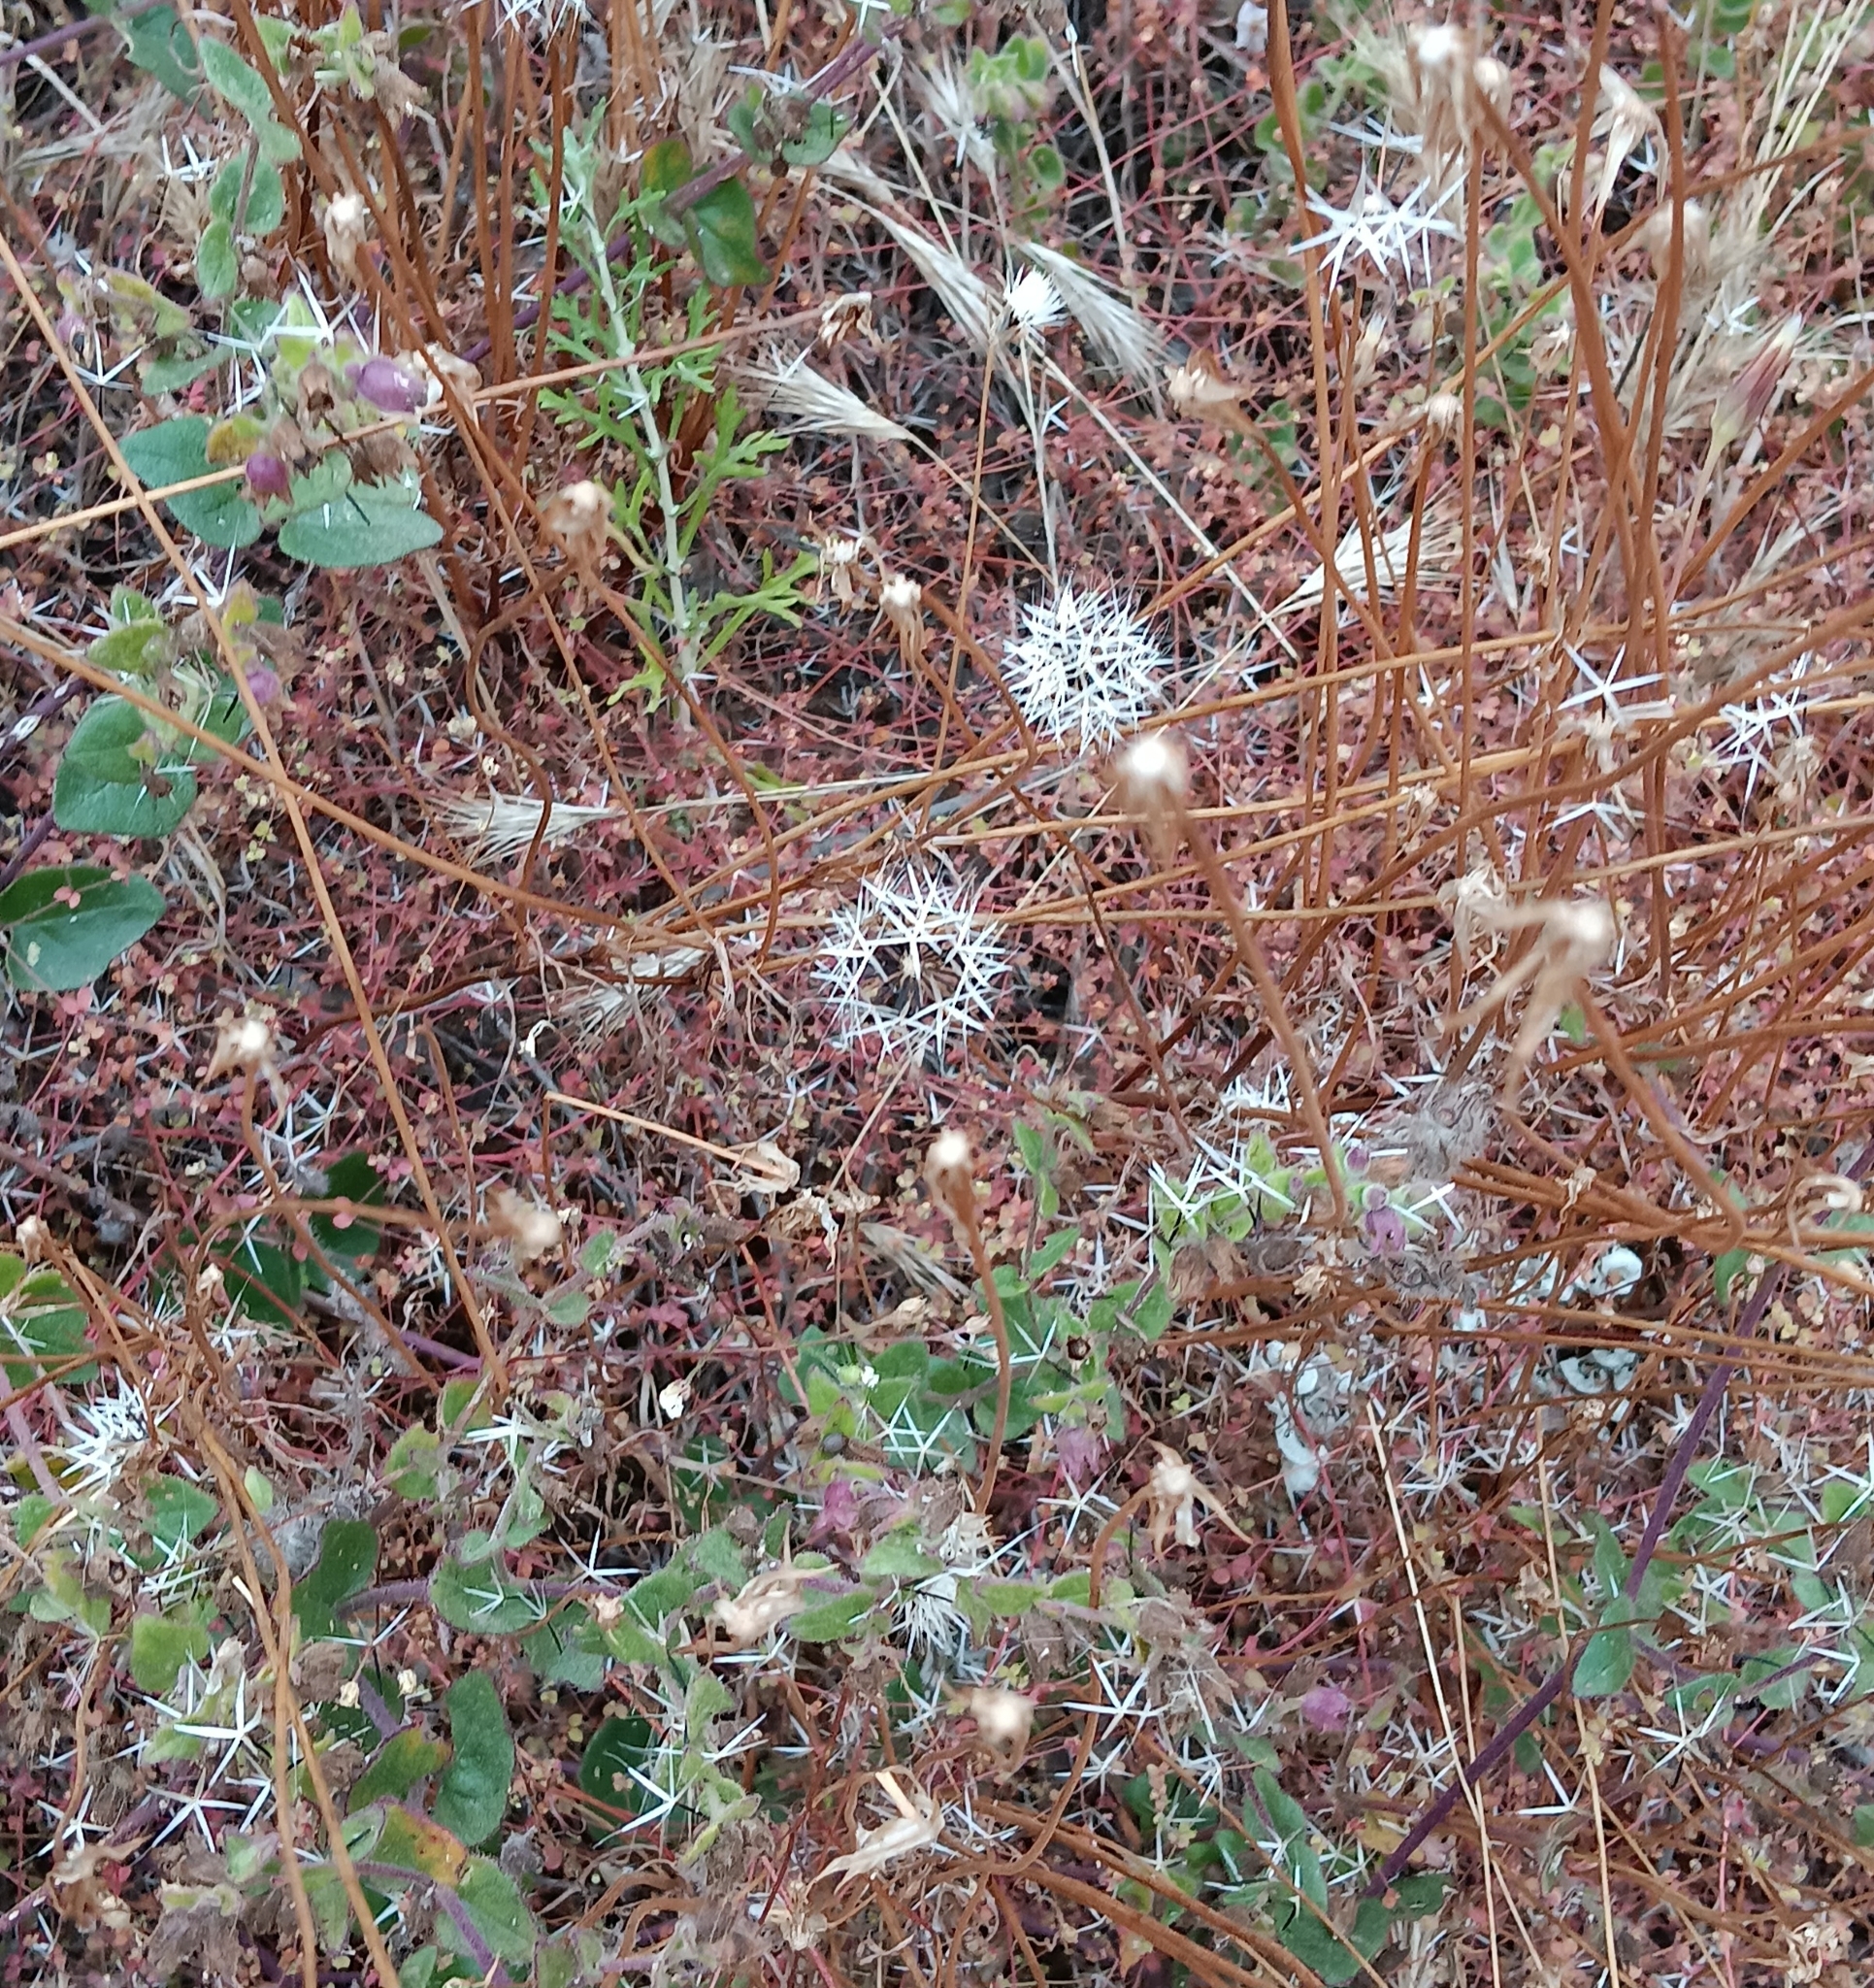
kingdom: Plantae
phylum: Tracheophyta
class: Magnoliopsida
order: Asterales
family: Asteraceae
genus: Microseris
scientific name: Microseris lindleyi
